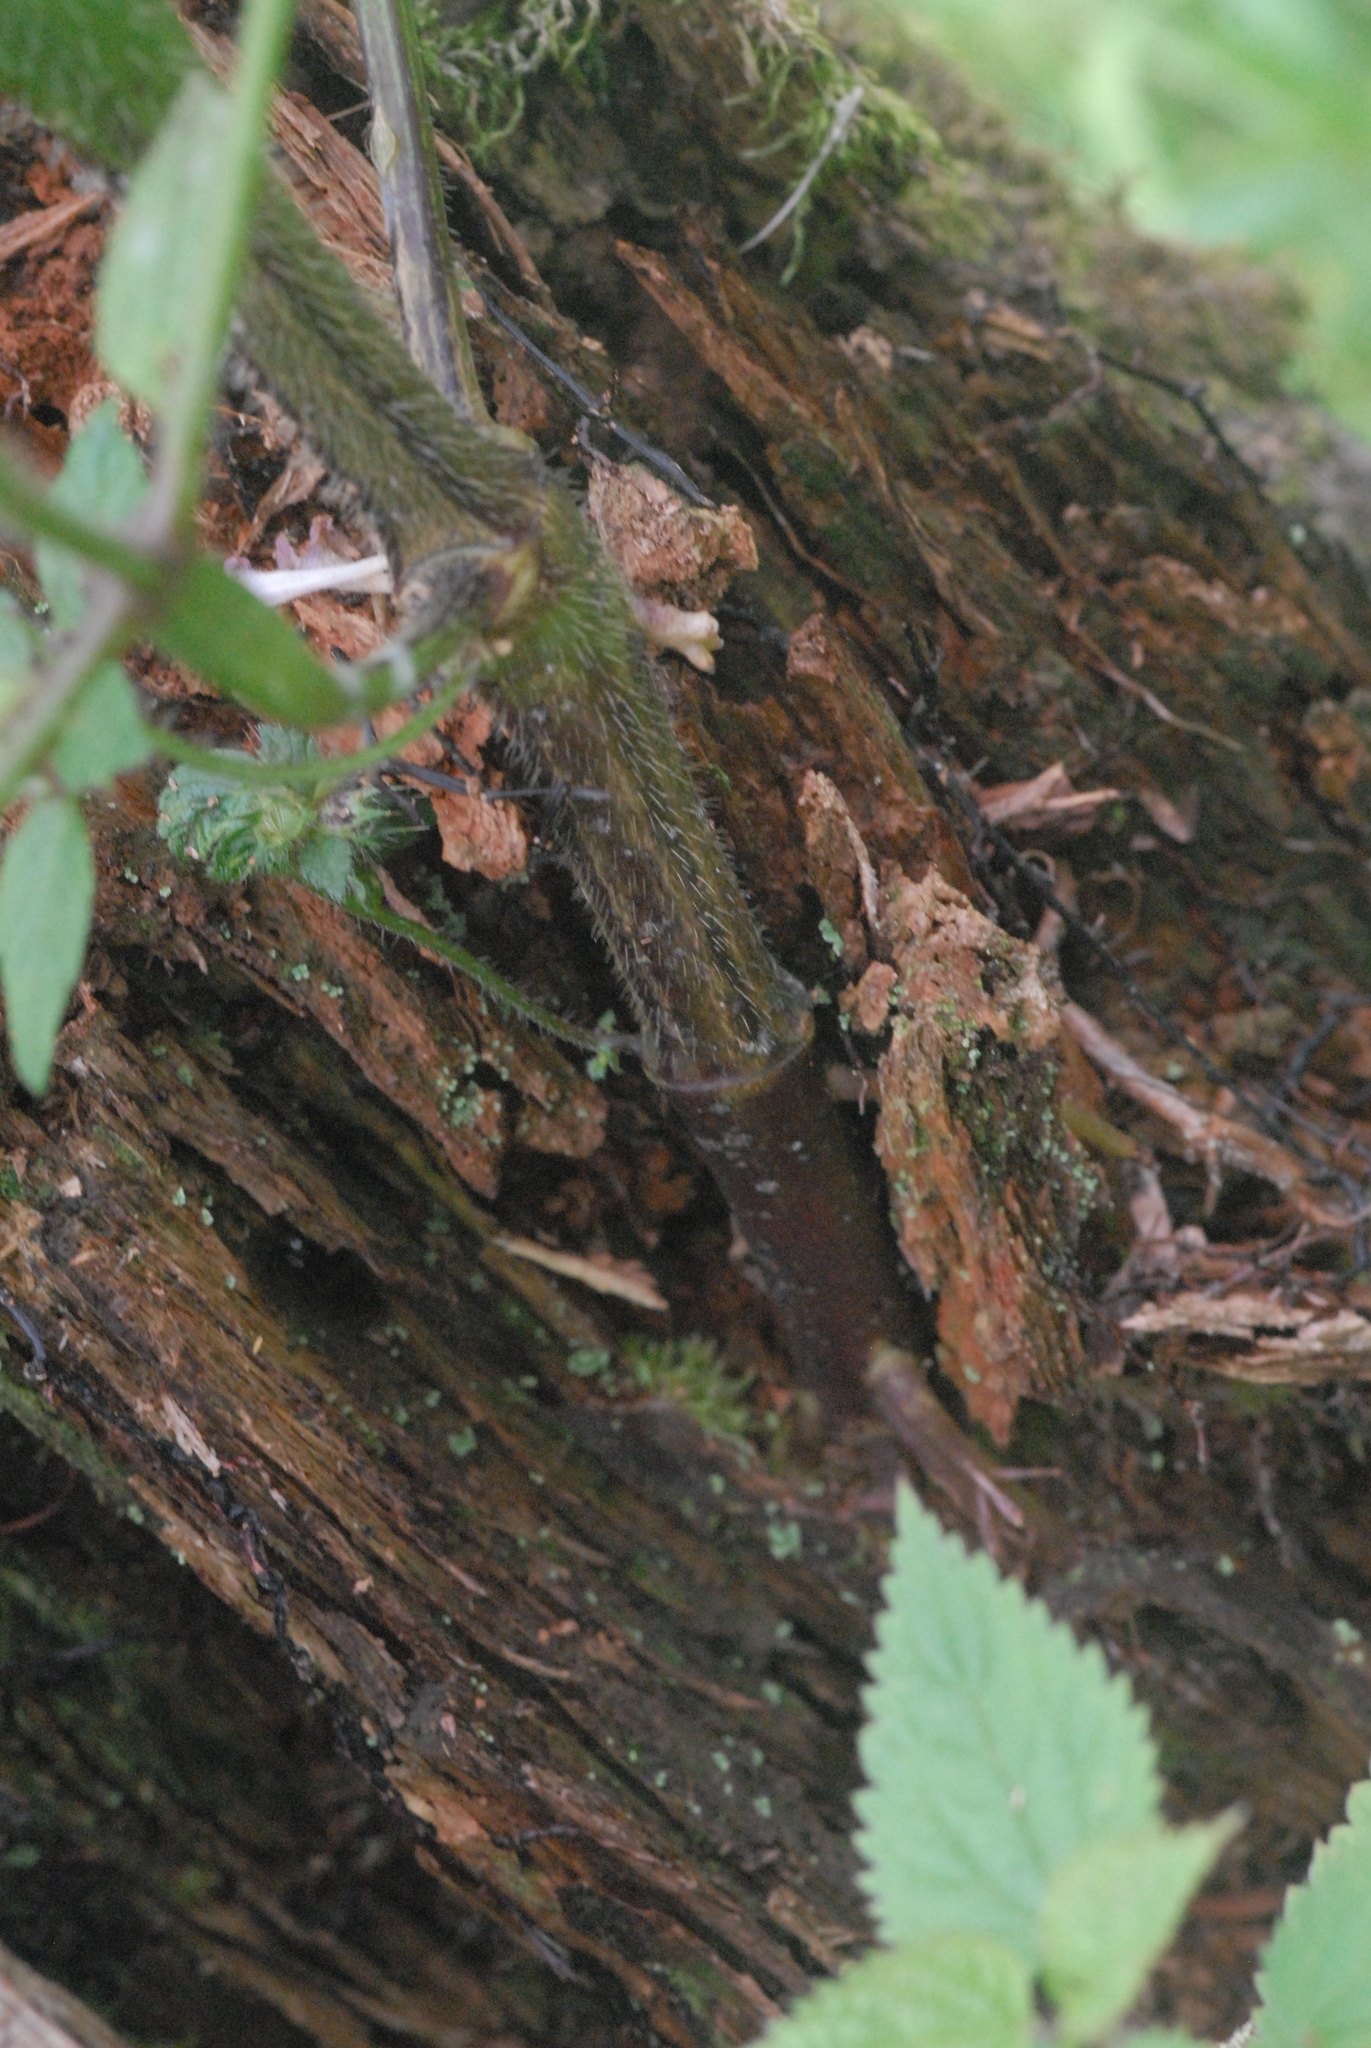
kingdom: Plantae
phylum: Tracheophyta
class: Magnoliopsida
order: Lamiales
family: Lamiaceae
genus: Galeopsis
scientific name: Galeopsis
